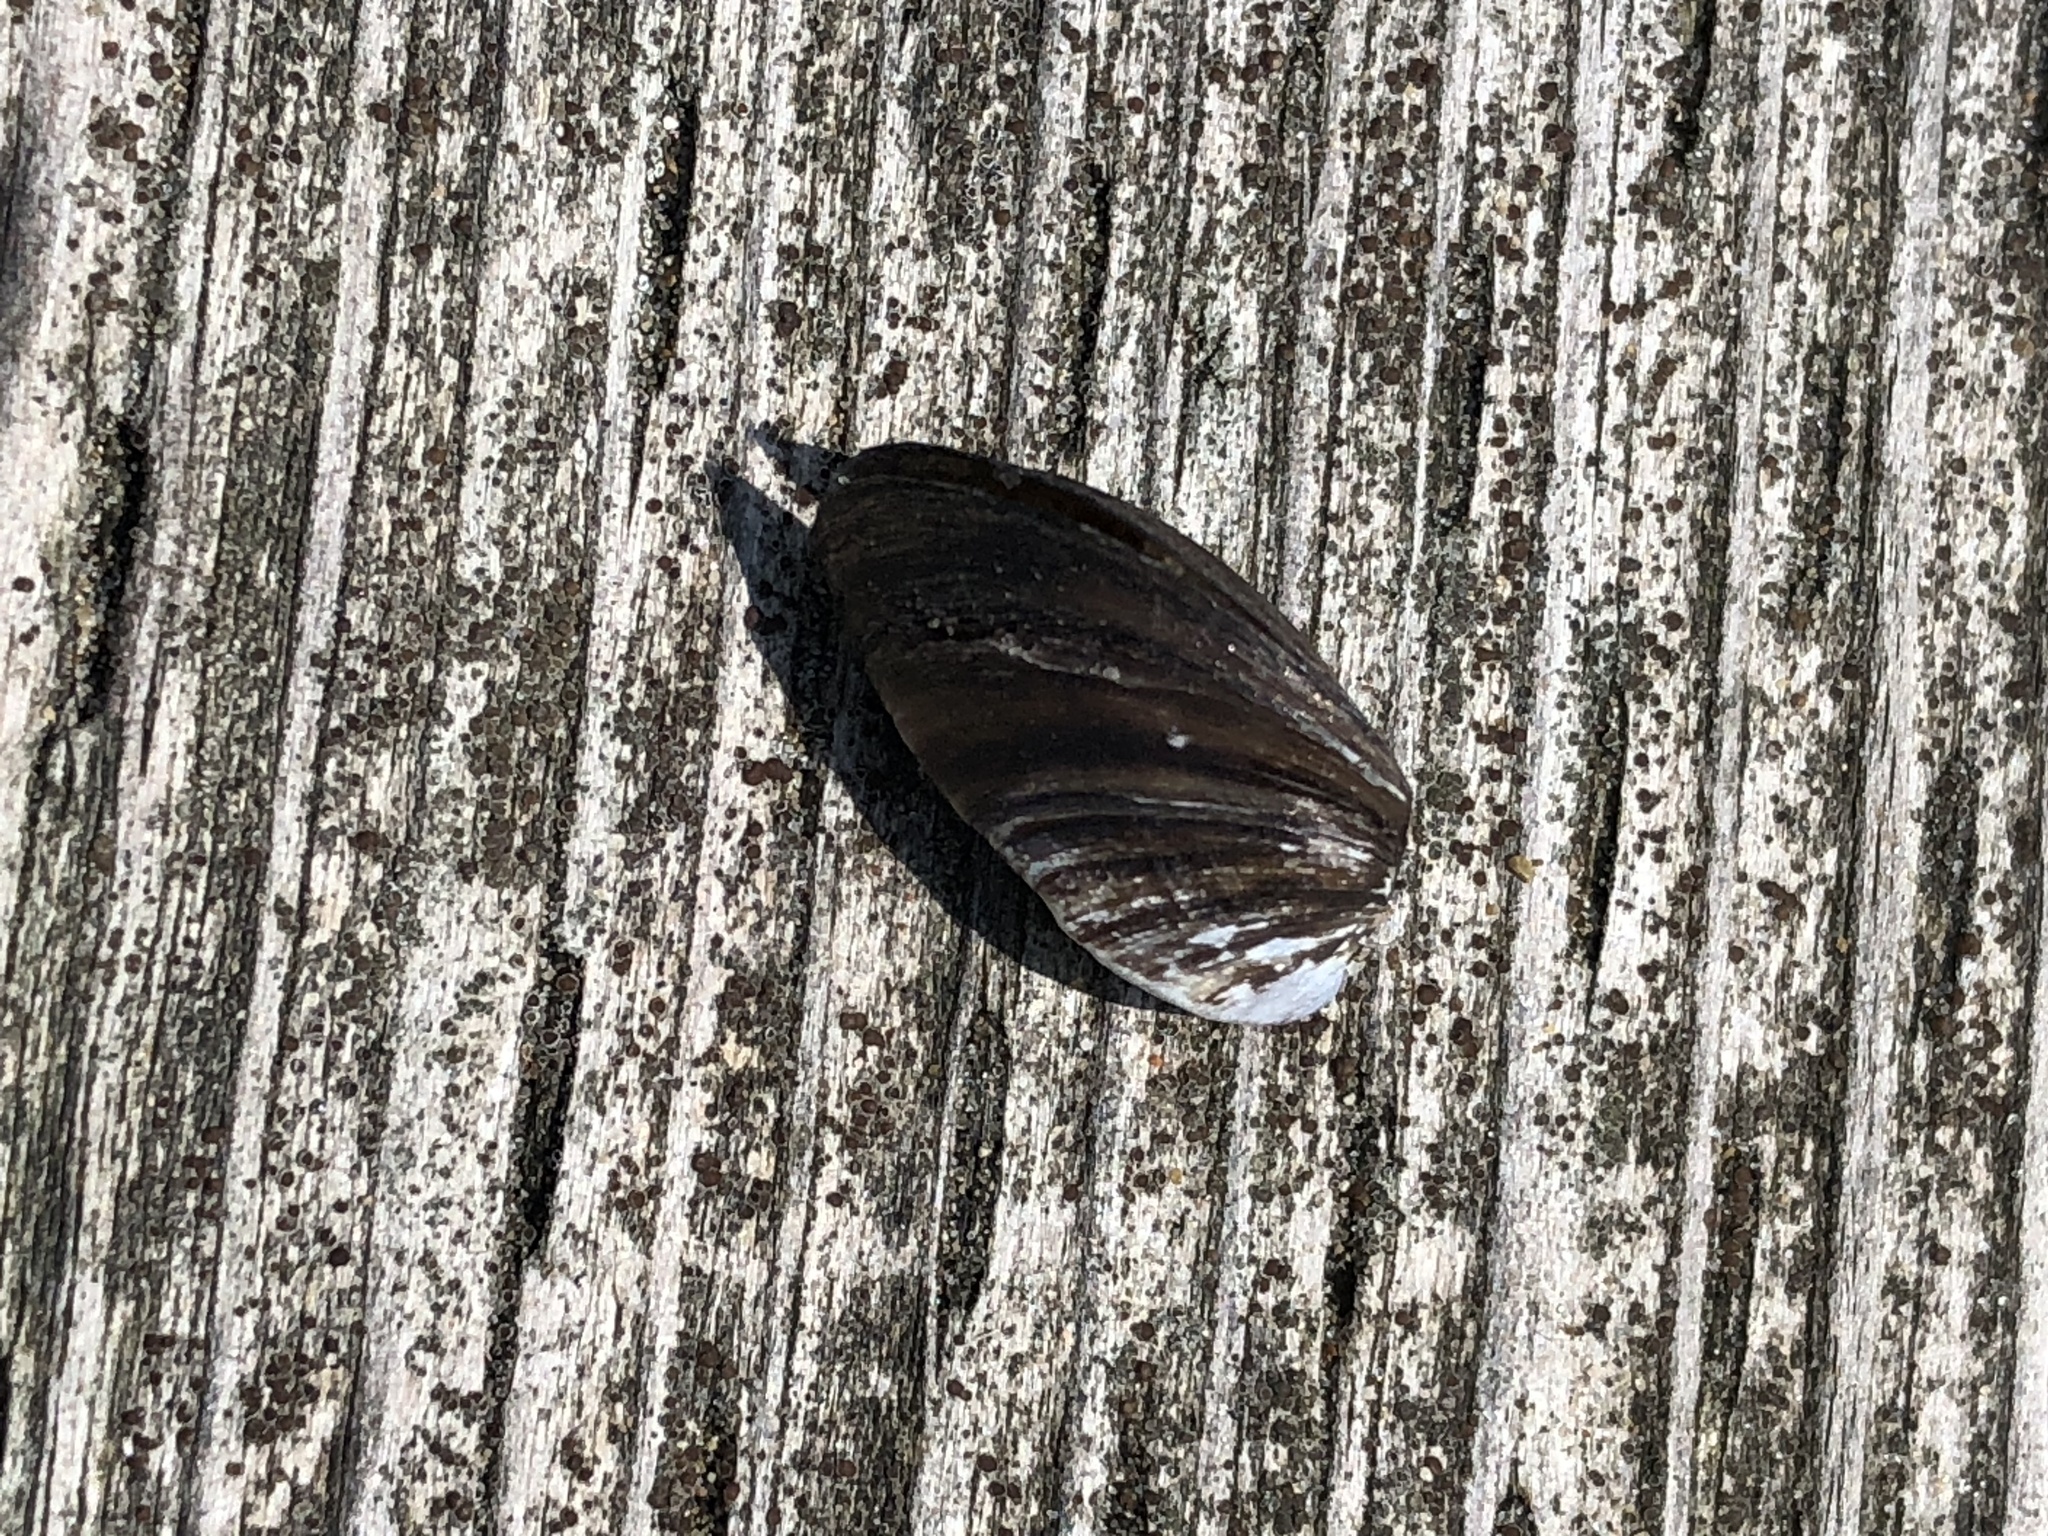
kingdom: Animalia
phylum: Mollusca
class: Bivalvia
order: Myida
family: Dreissenidae
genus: Dreissena
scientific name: Dreissena polymorpha
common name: Zebra mussel
